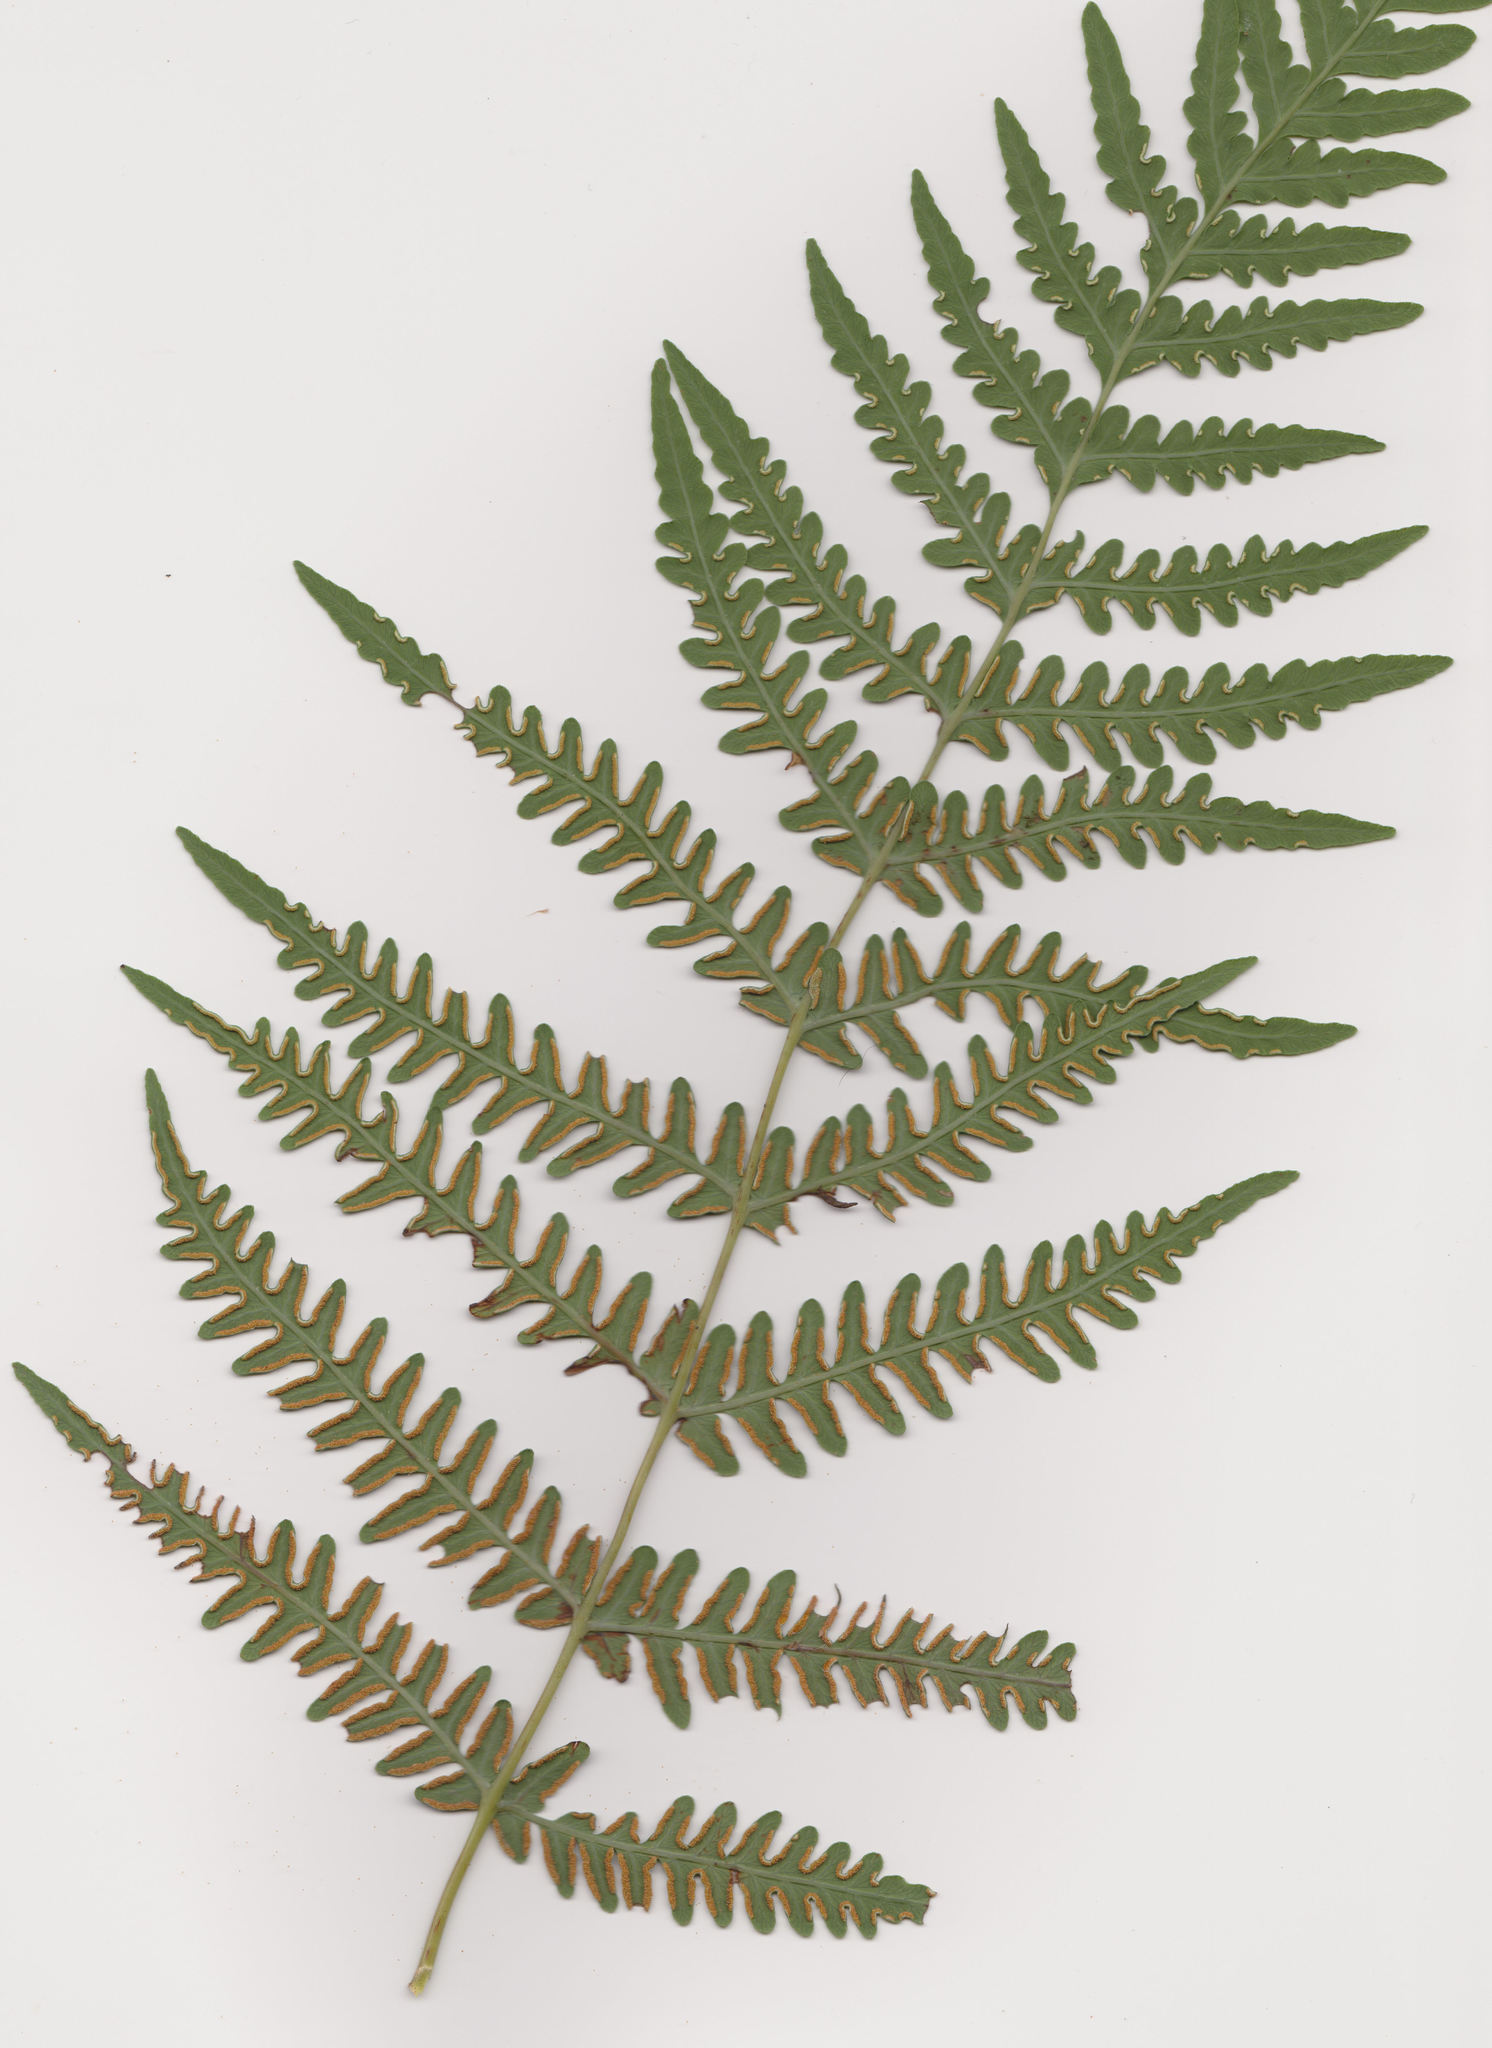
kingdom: Plantae
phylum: Tracheophyta
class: Polypodiopsida
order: Polypodiales
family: Dennstaedtiaceae
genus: Histiopteris
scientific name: Histiopteris incisa
